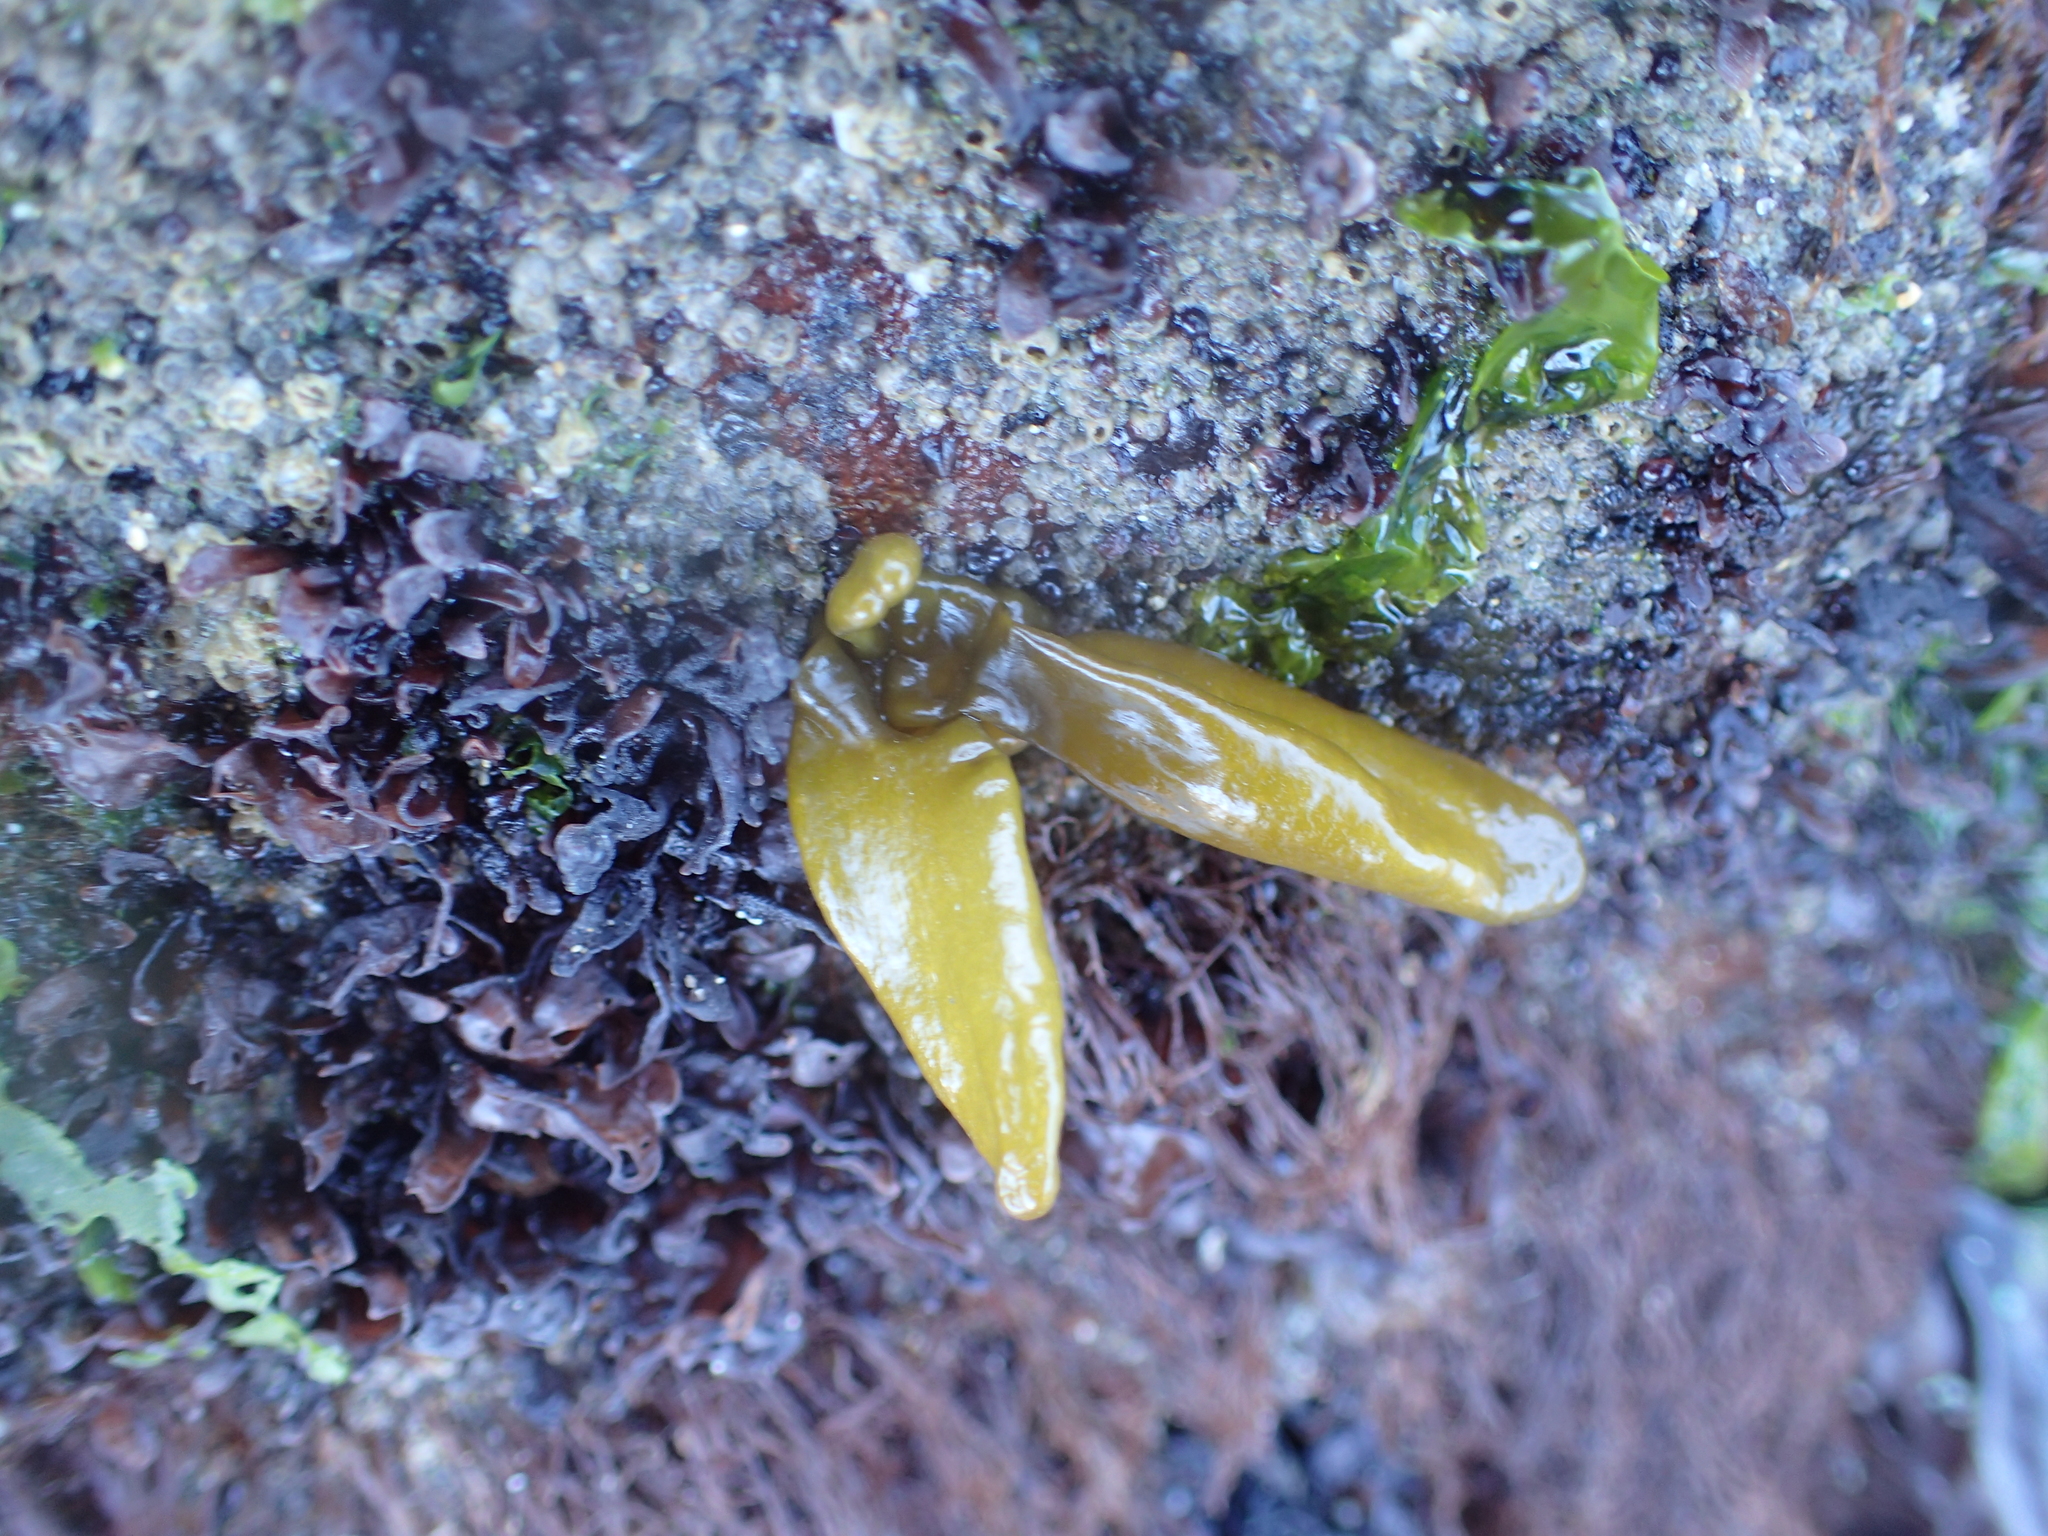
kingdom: Plantae
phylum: Rhodophyta
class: Florideophyceae
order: Palmariales
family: Palmariaceae
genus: Halosaccion
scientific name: Halosaccion glandiforme
